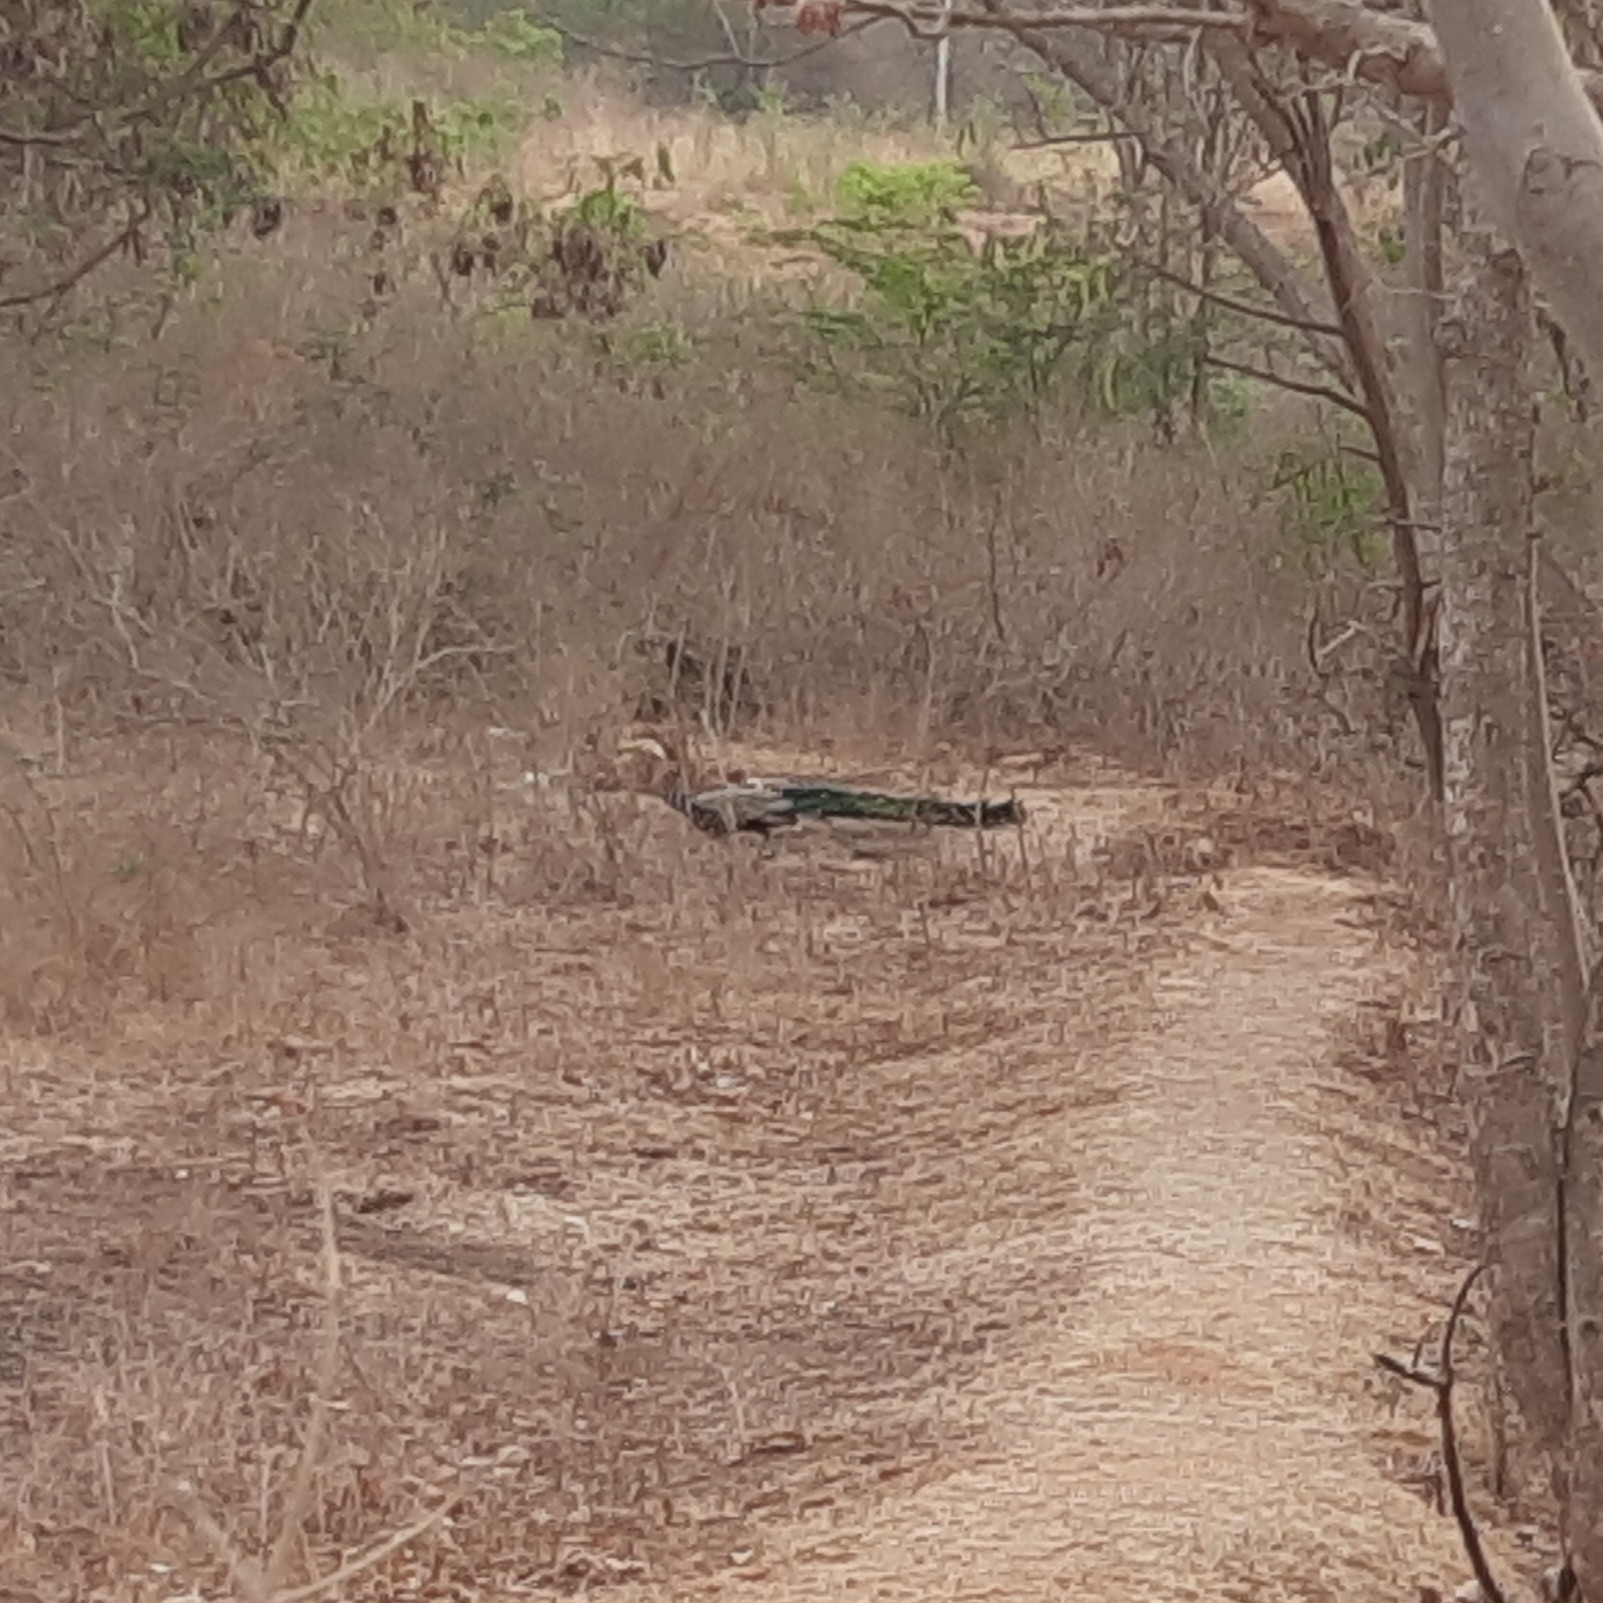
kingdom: Animalia
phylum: Chordata
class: Aves
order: Galliformes
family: Phasianidae
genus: Pavo
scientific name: Pavo cristatus
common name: Indian peafowl
